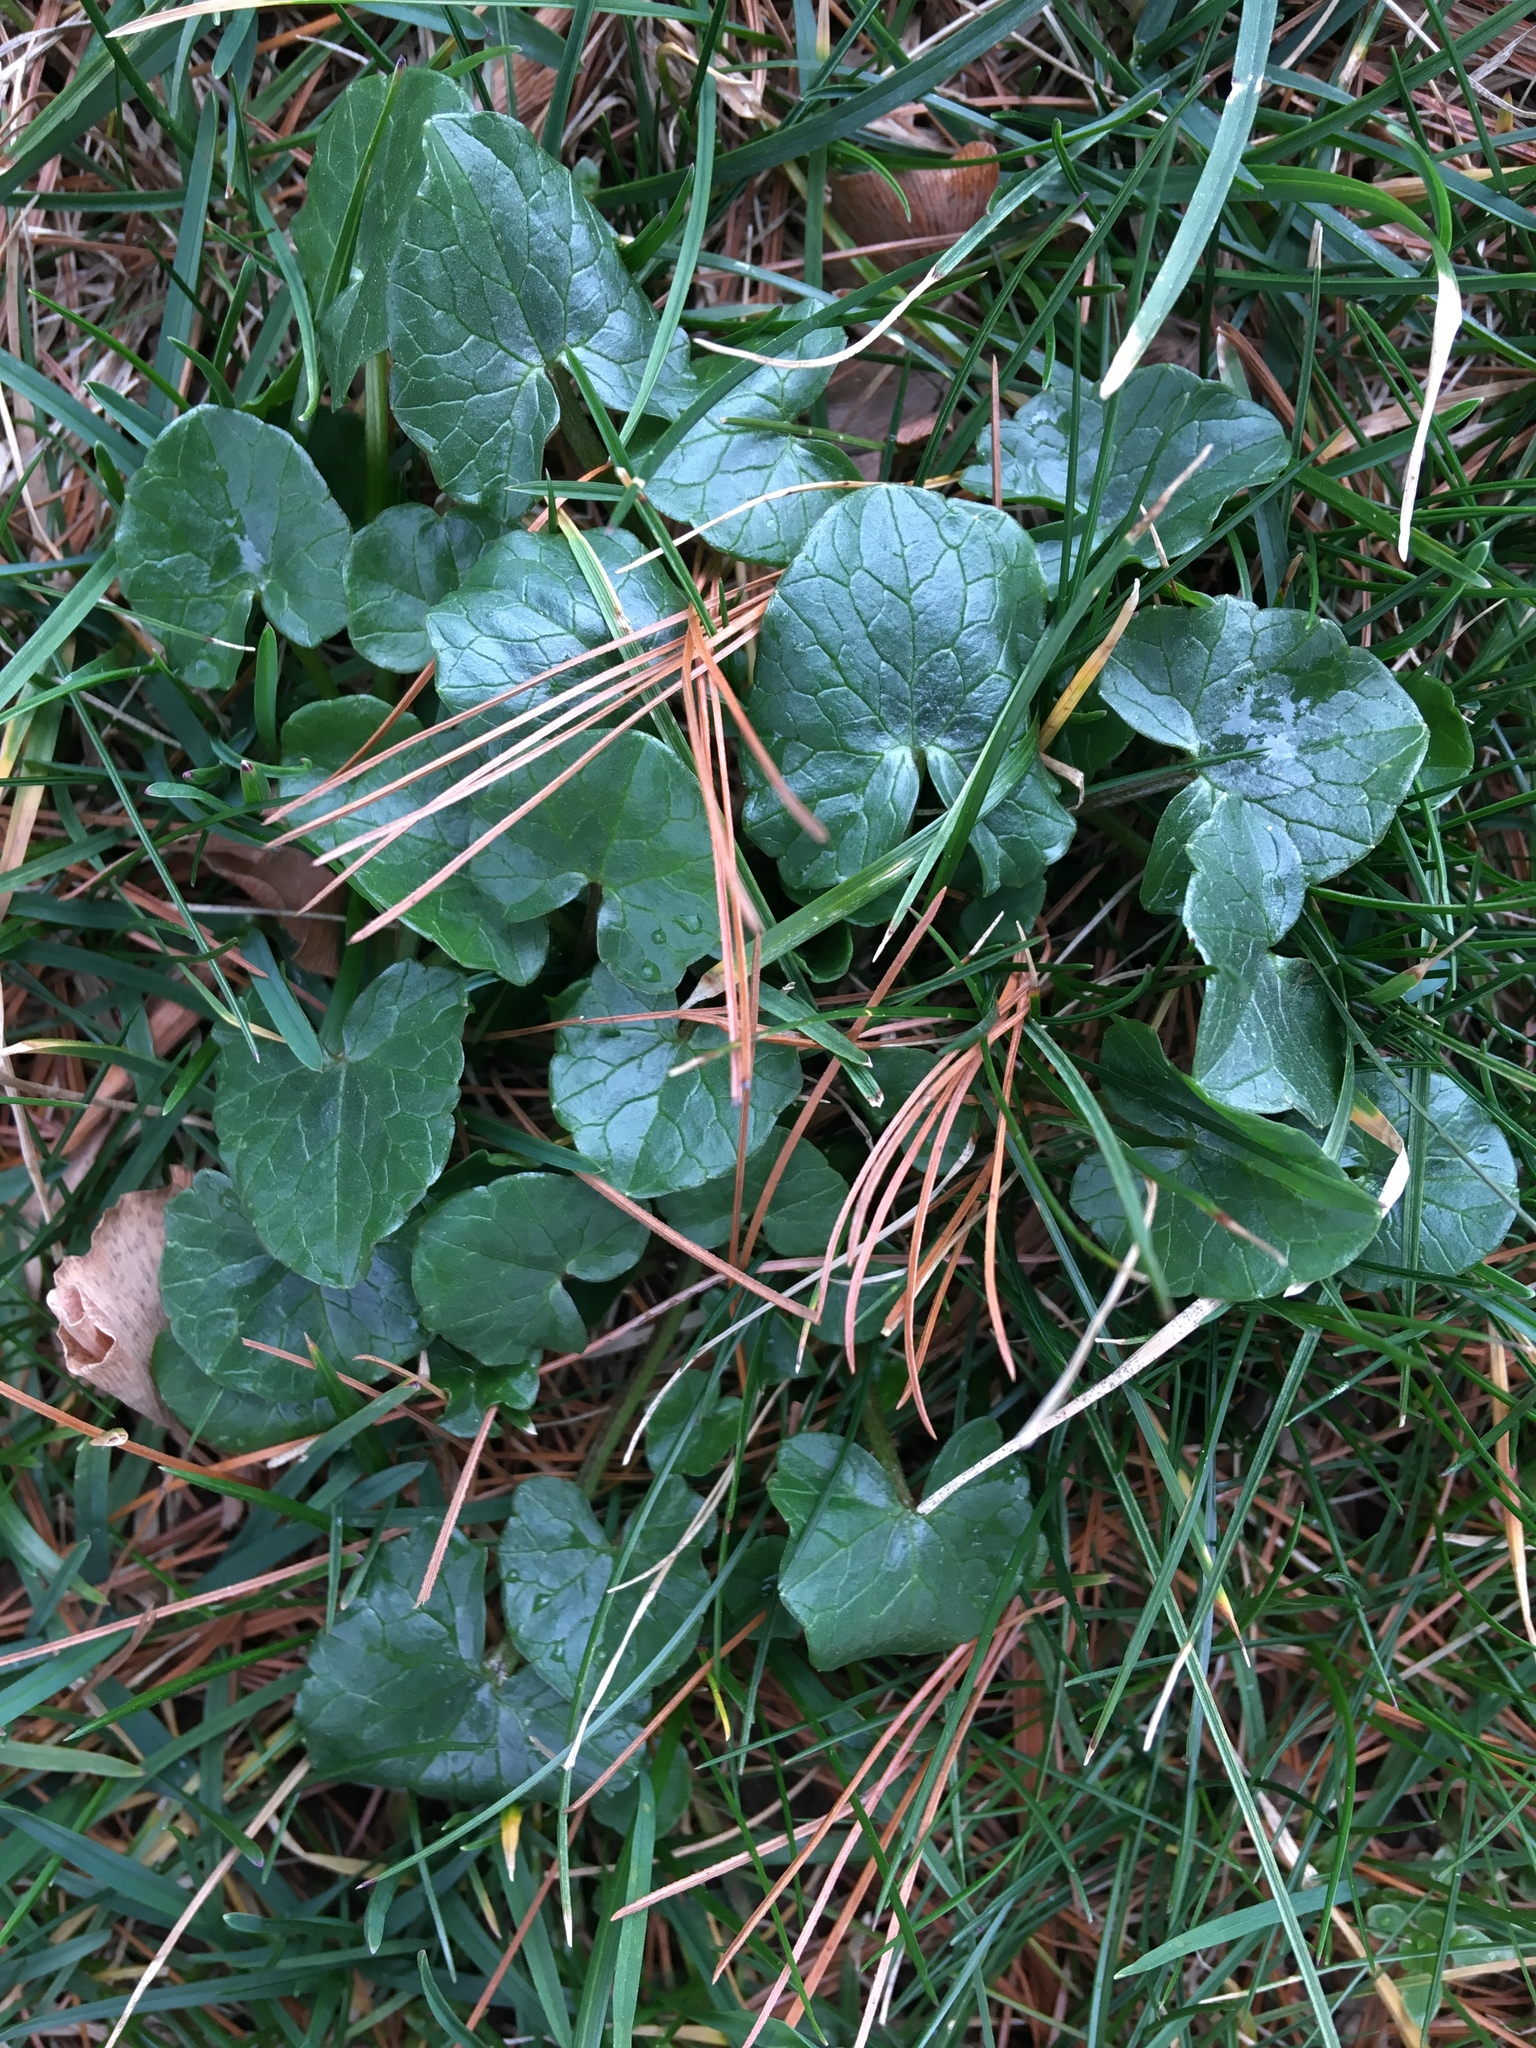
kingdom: Plantae
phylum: Tracheophyta
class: Magnoliopsida
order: Ranunculales
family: Ranunculaceae
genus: Ficaria
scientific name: Ficaria verna
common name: Lesser celandine
